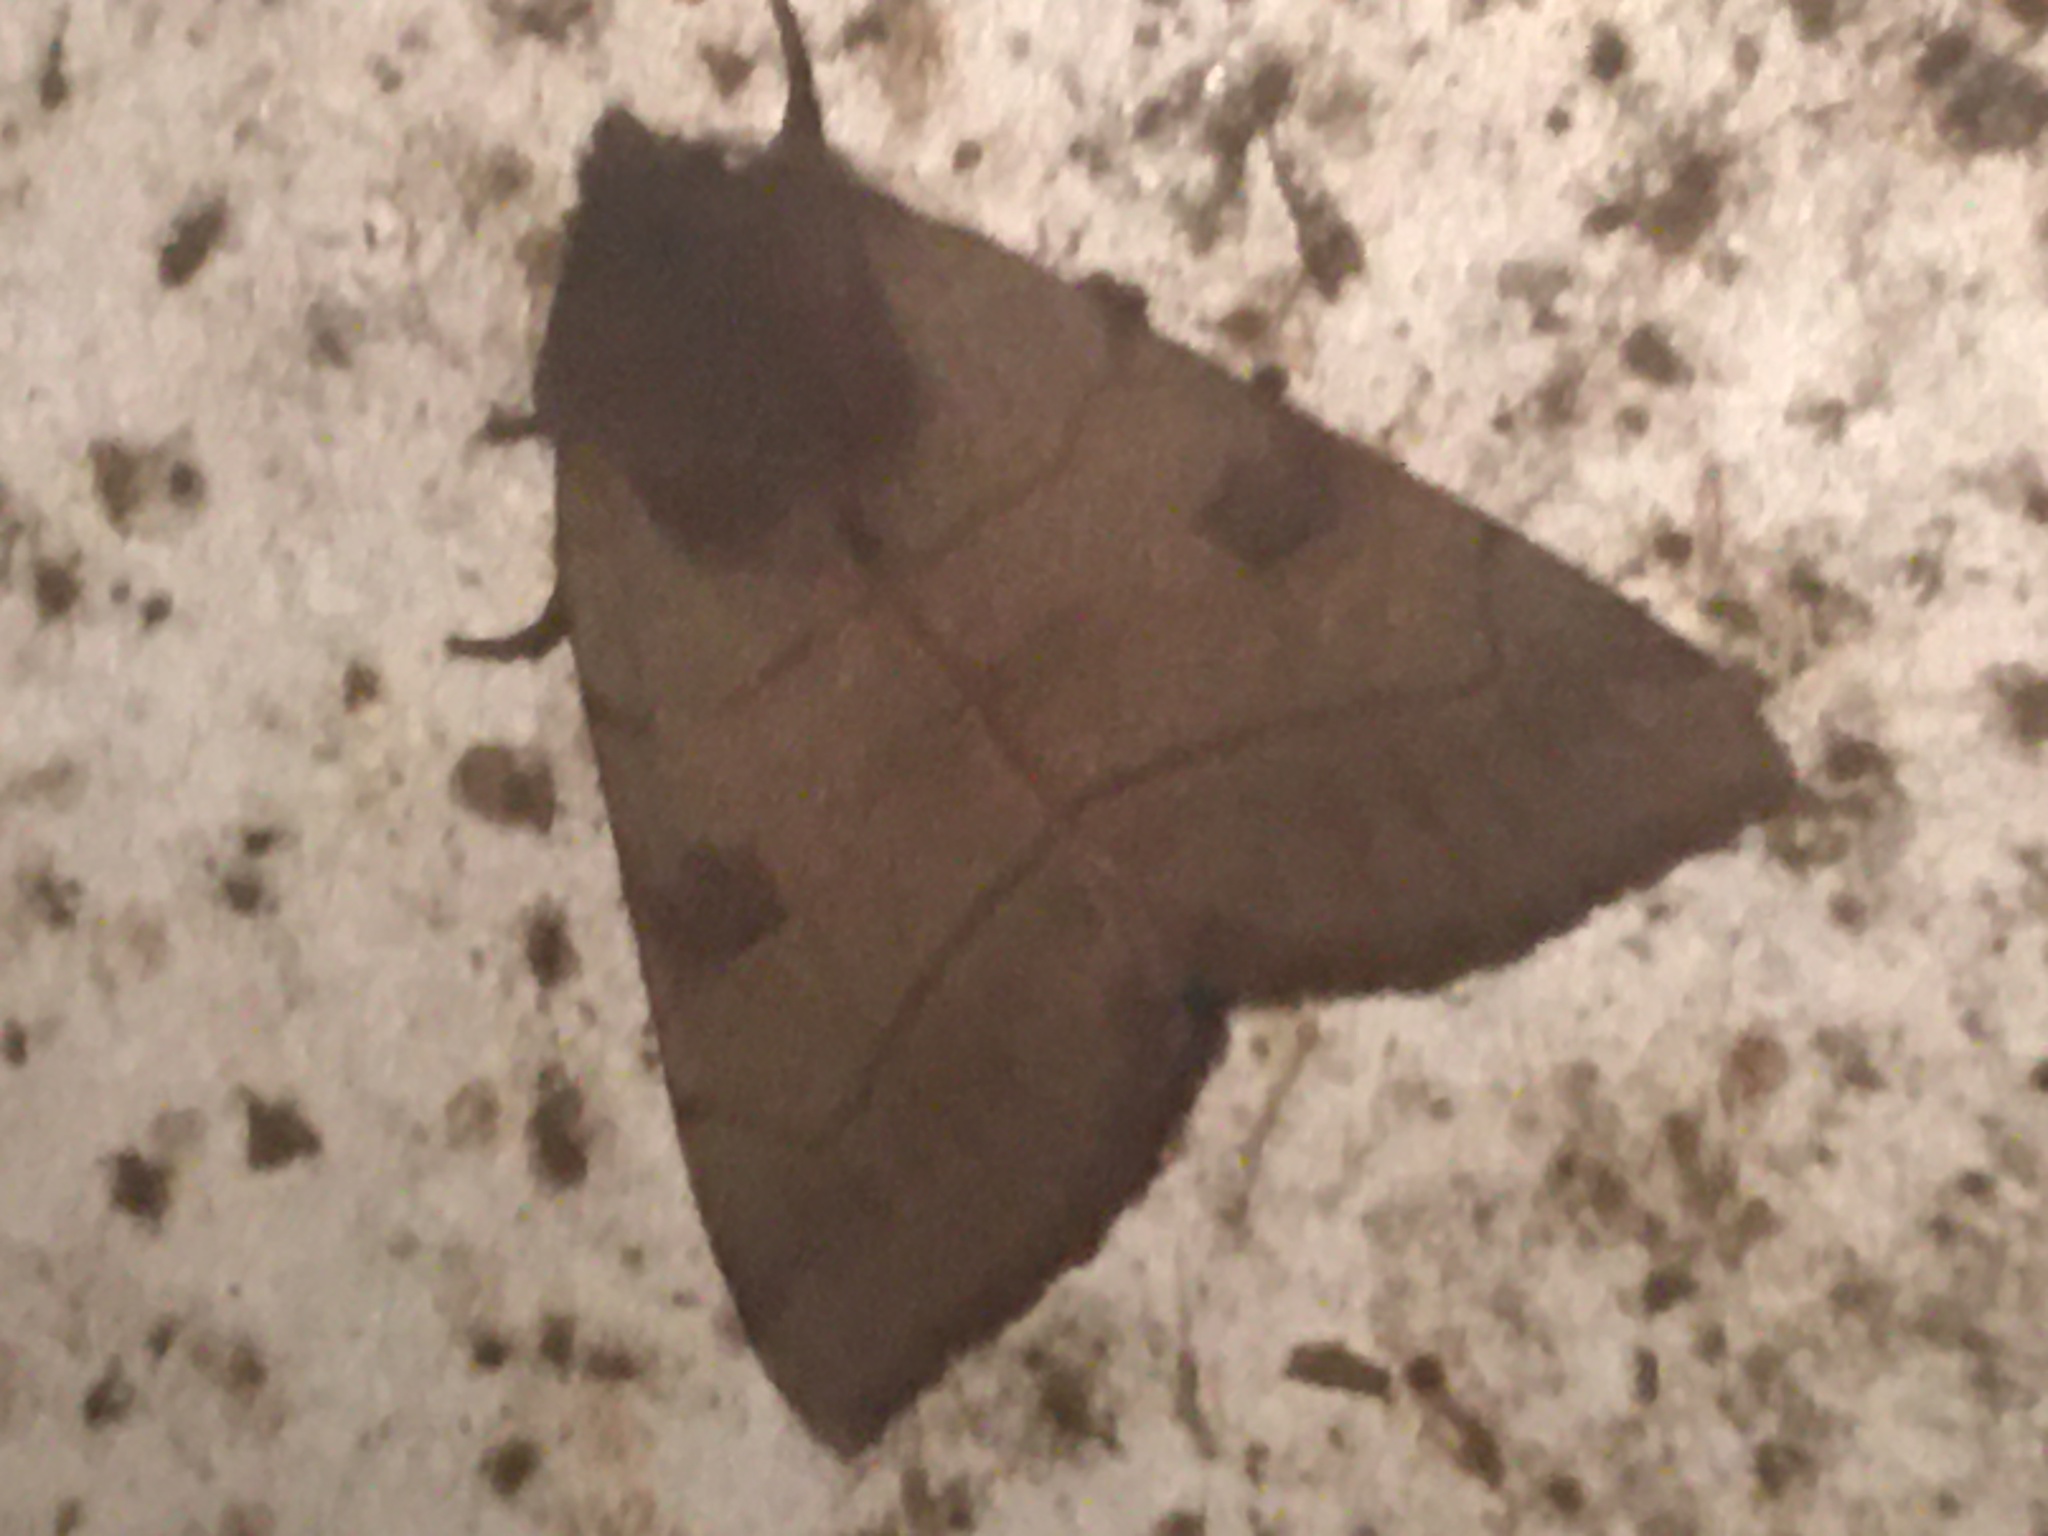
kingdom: Animalia
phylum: Arthropoda
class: Insecta
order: Lepidoptera
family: Noctuidae
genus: Choephora
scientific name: Choephora fungorum
